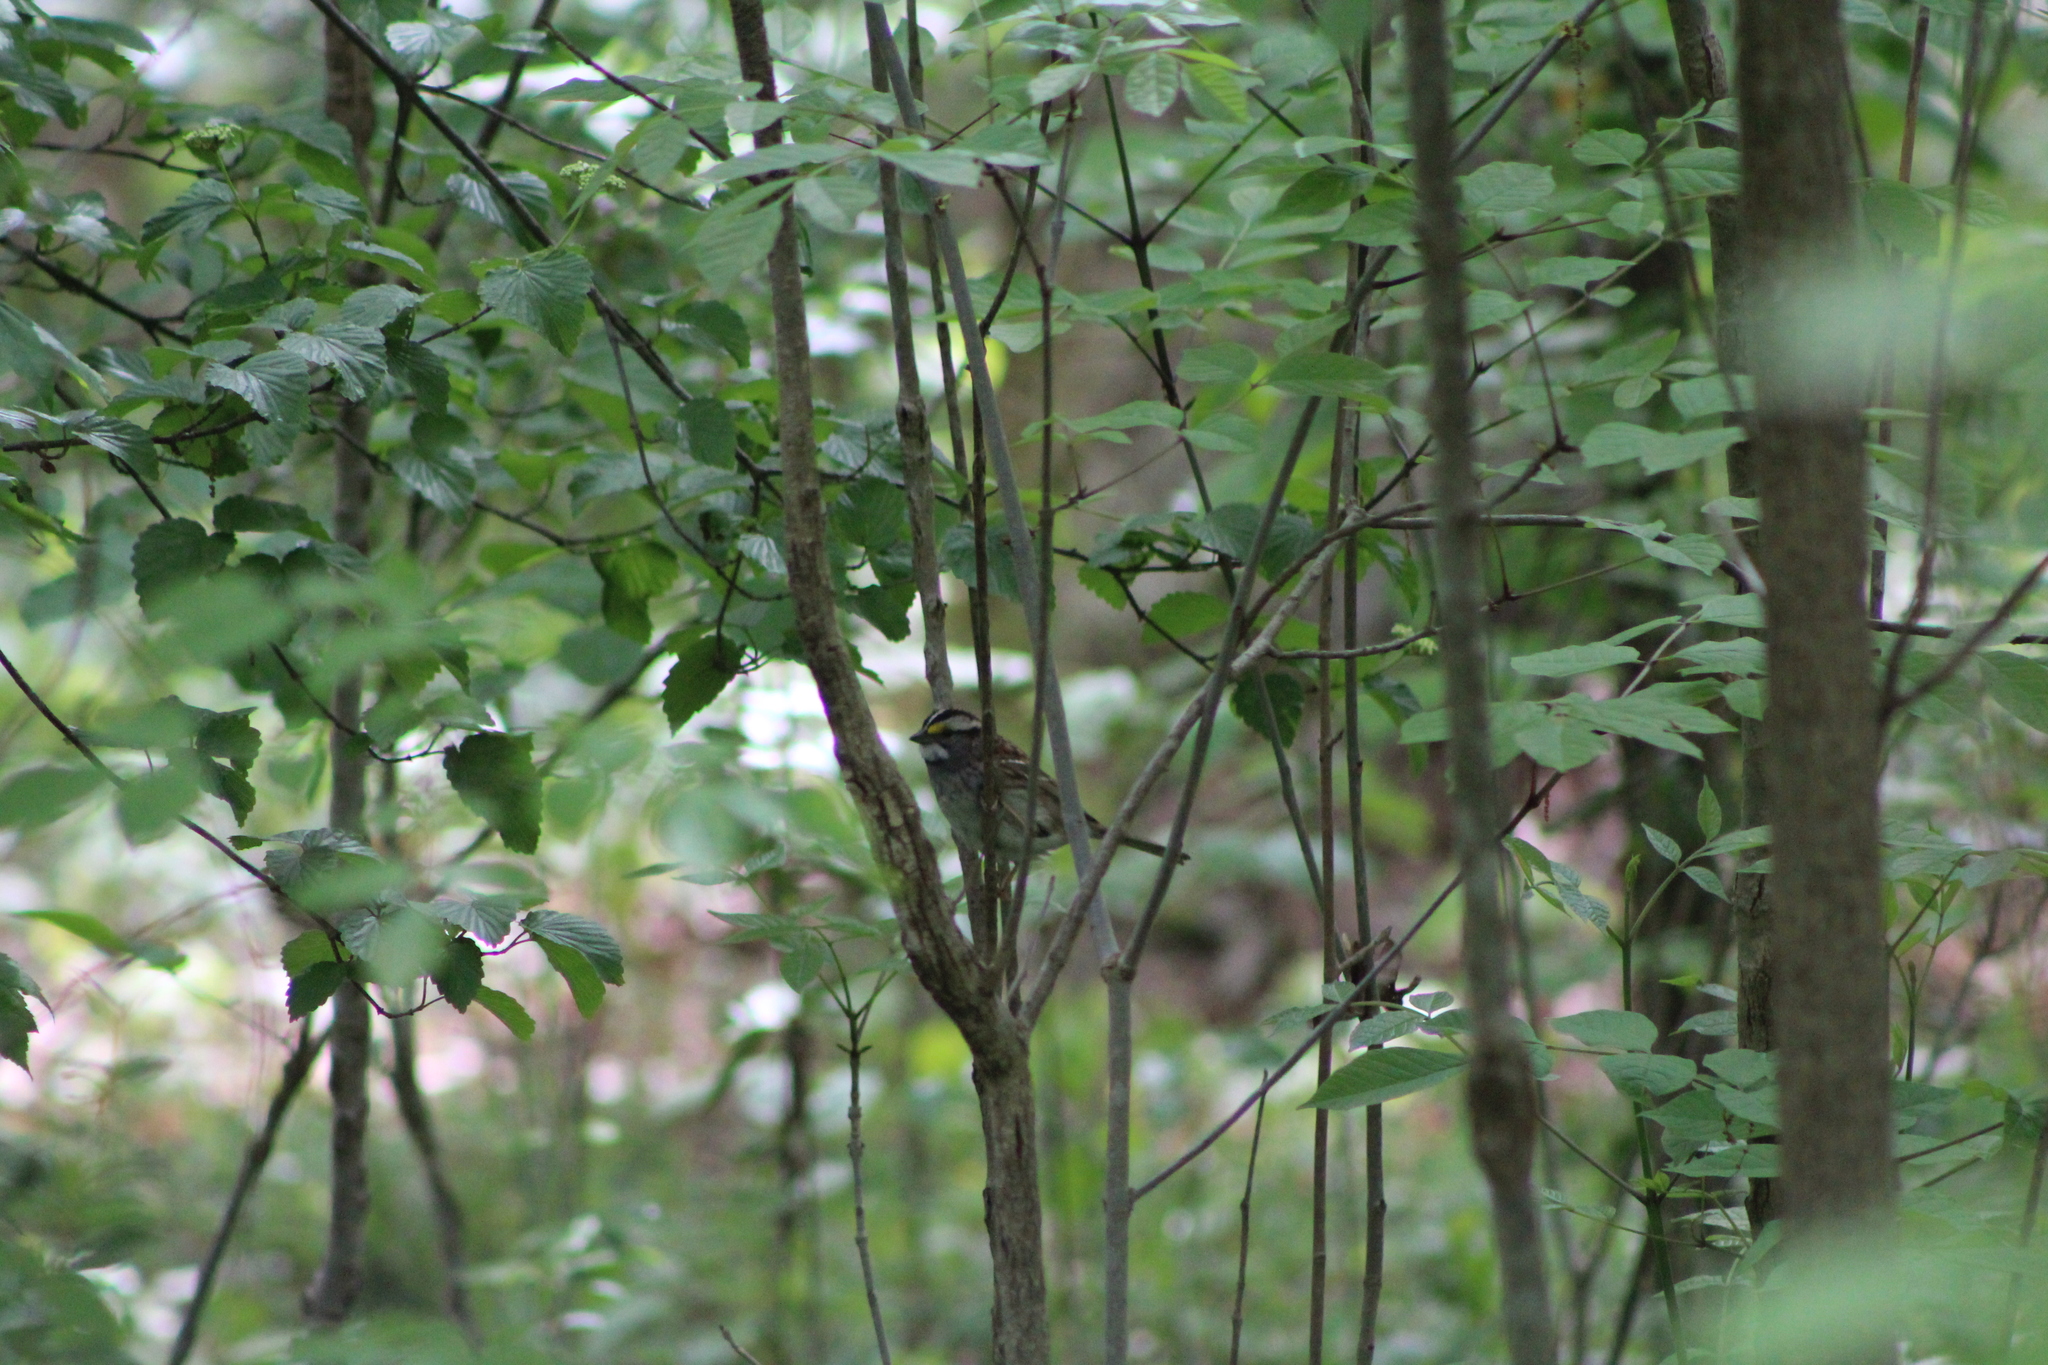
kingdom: Animalia
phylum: Chordata
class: Aves
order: Passeriformes
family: Passerellidae
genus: Zonotrichia
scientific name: Zonotrichia albicollis
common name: White-throated sparrow
